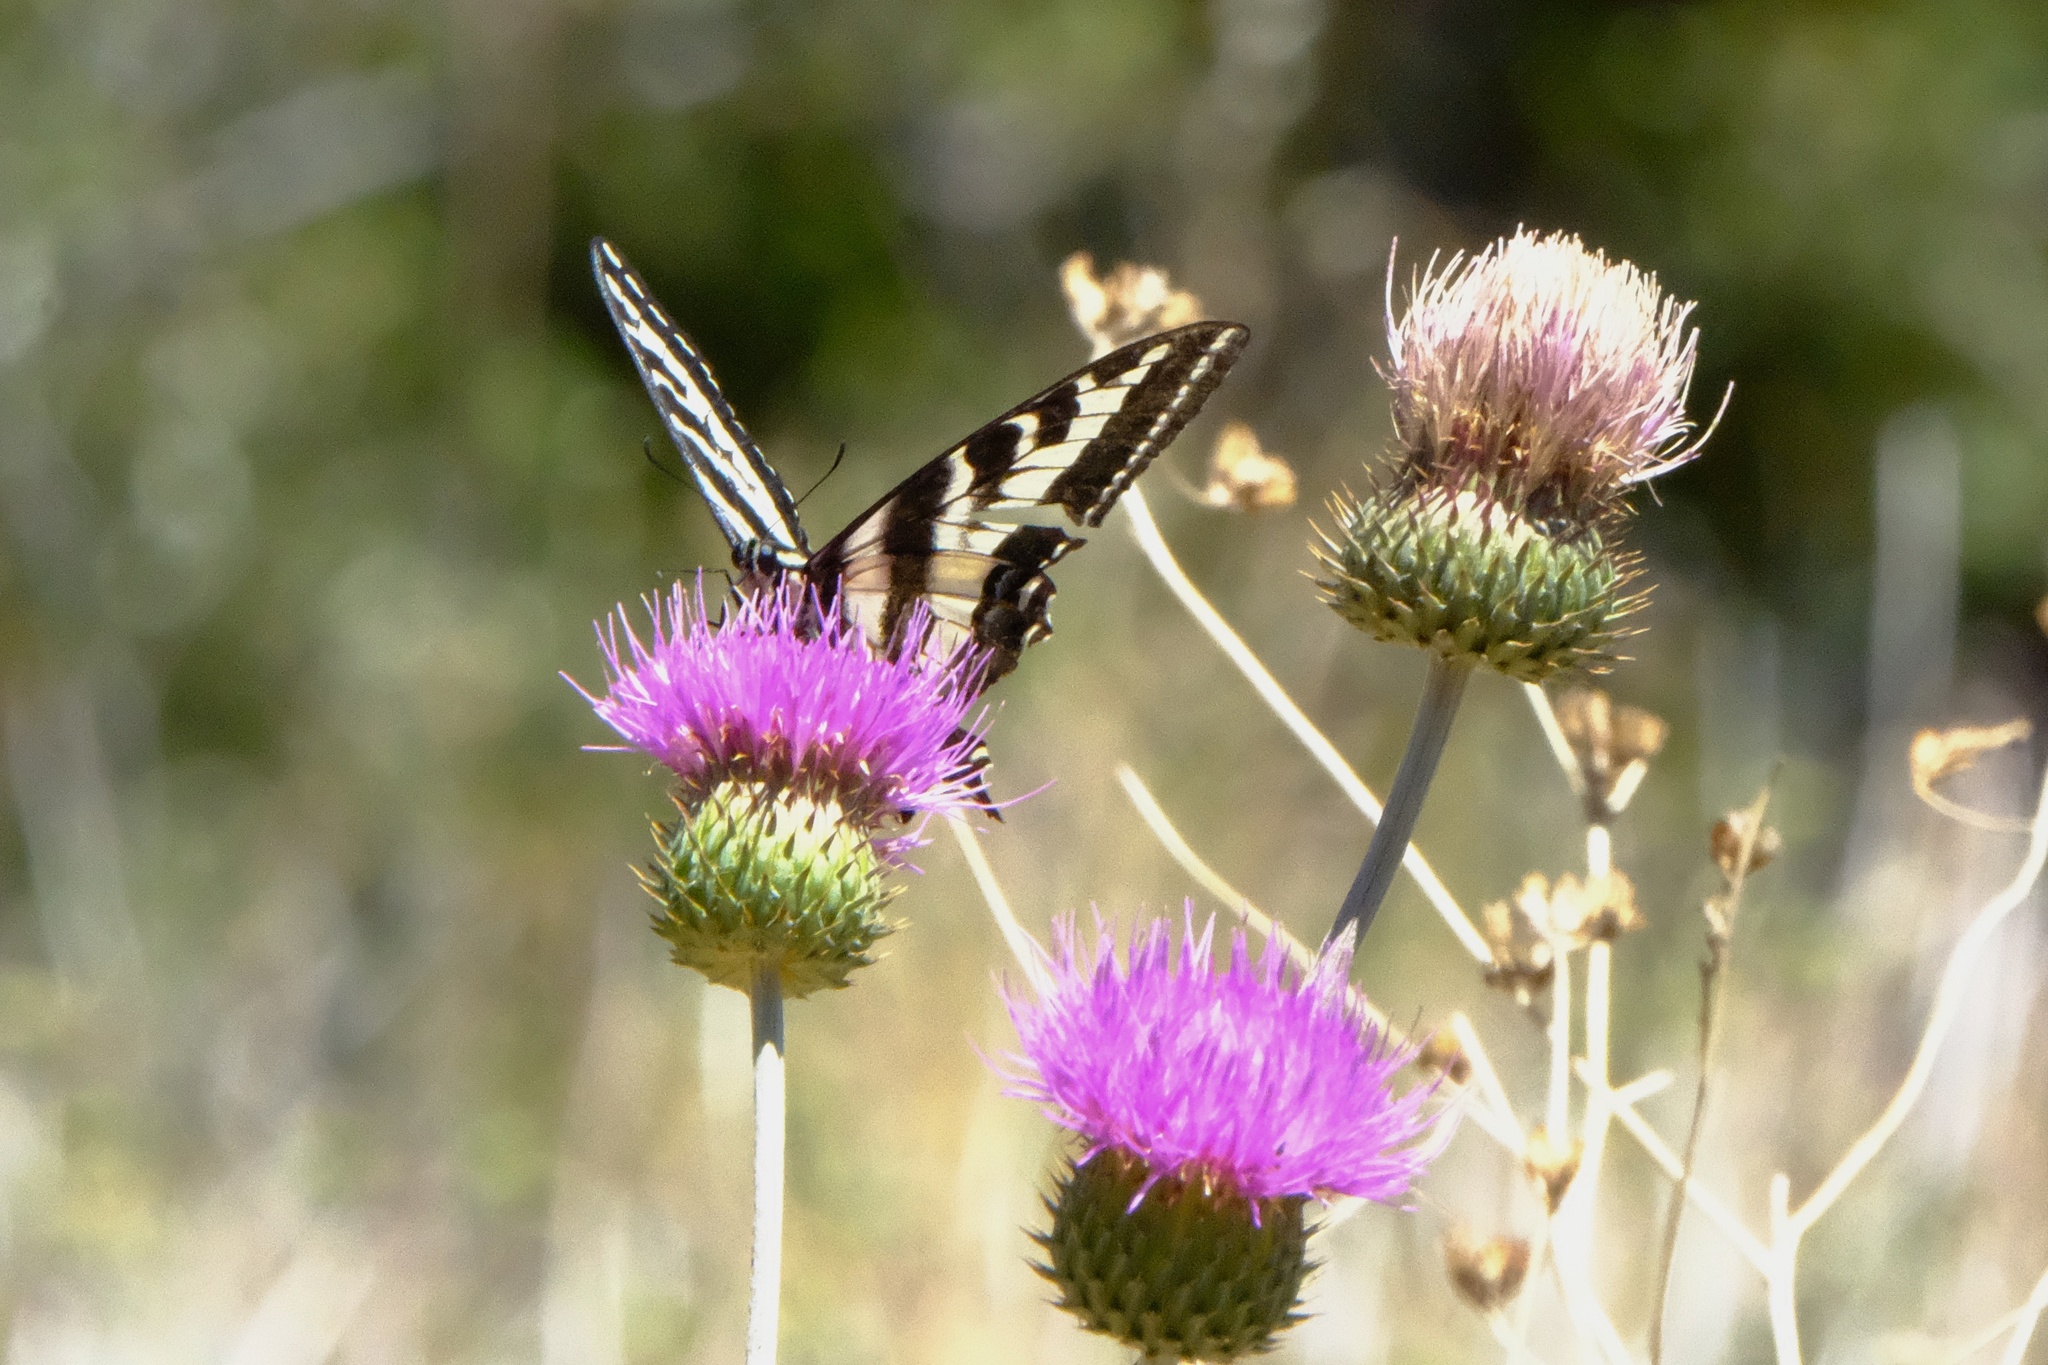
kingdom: Animalia
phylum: Arthropoda
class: Insecta
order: Lepidoptera
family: Papilionidae
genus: Papilio
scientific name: Papilio eurymedon
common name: Pale tiger swallowtail
